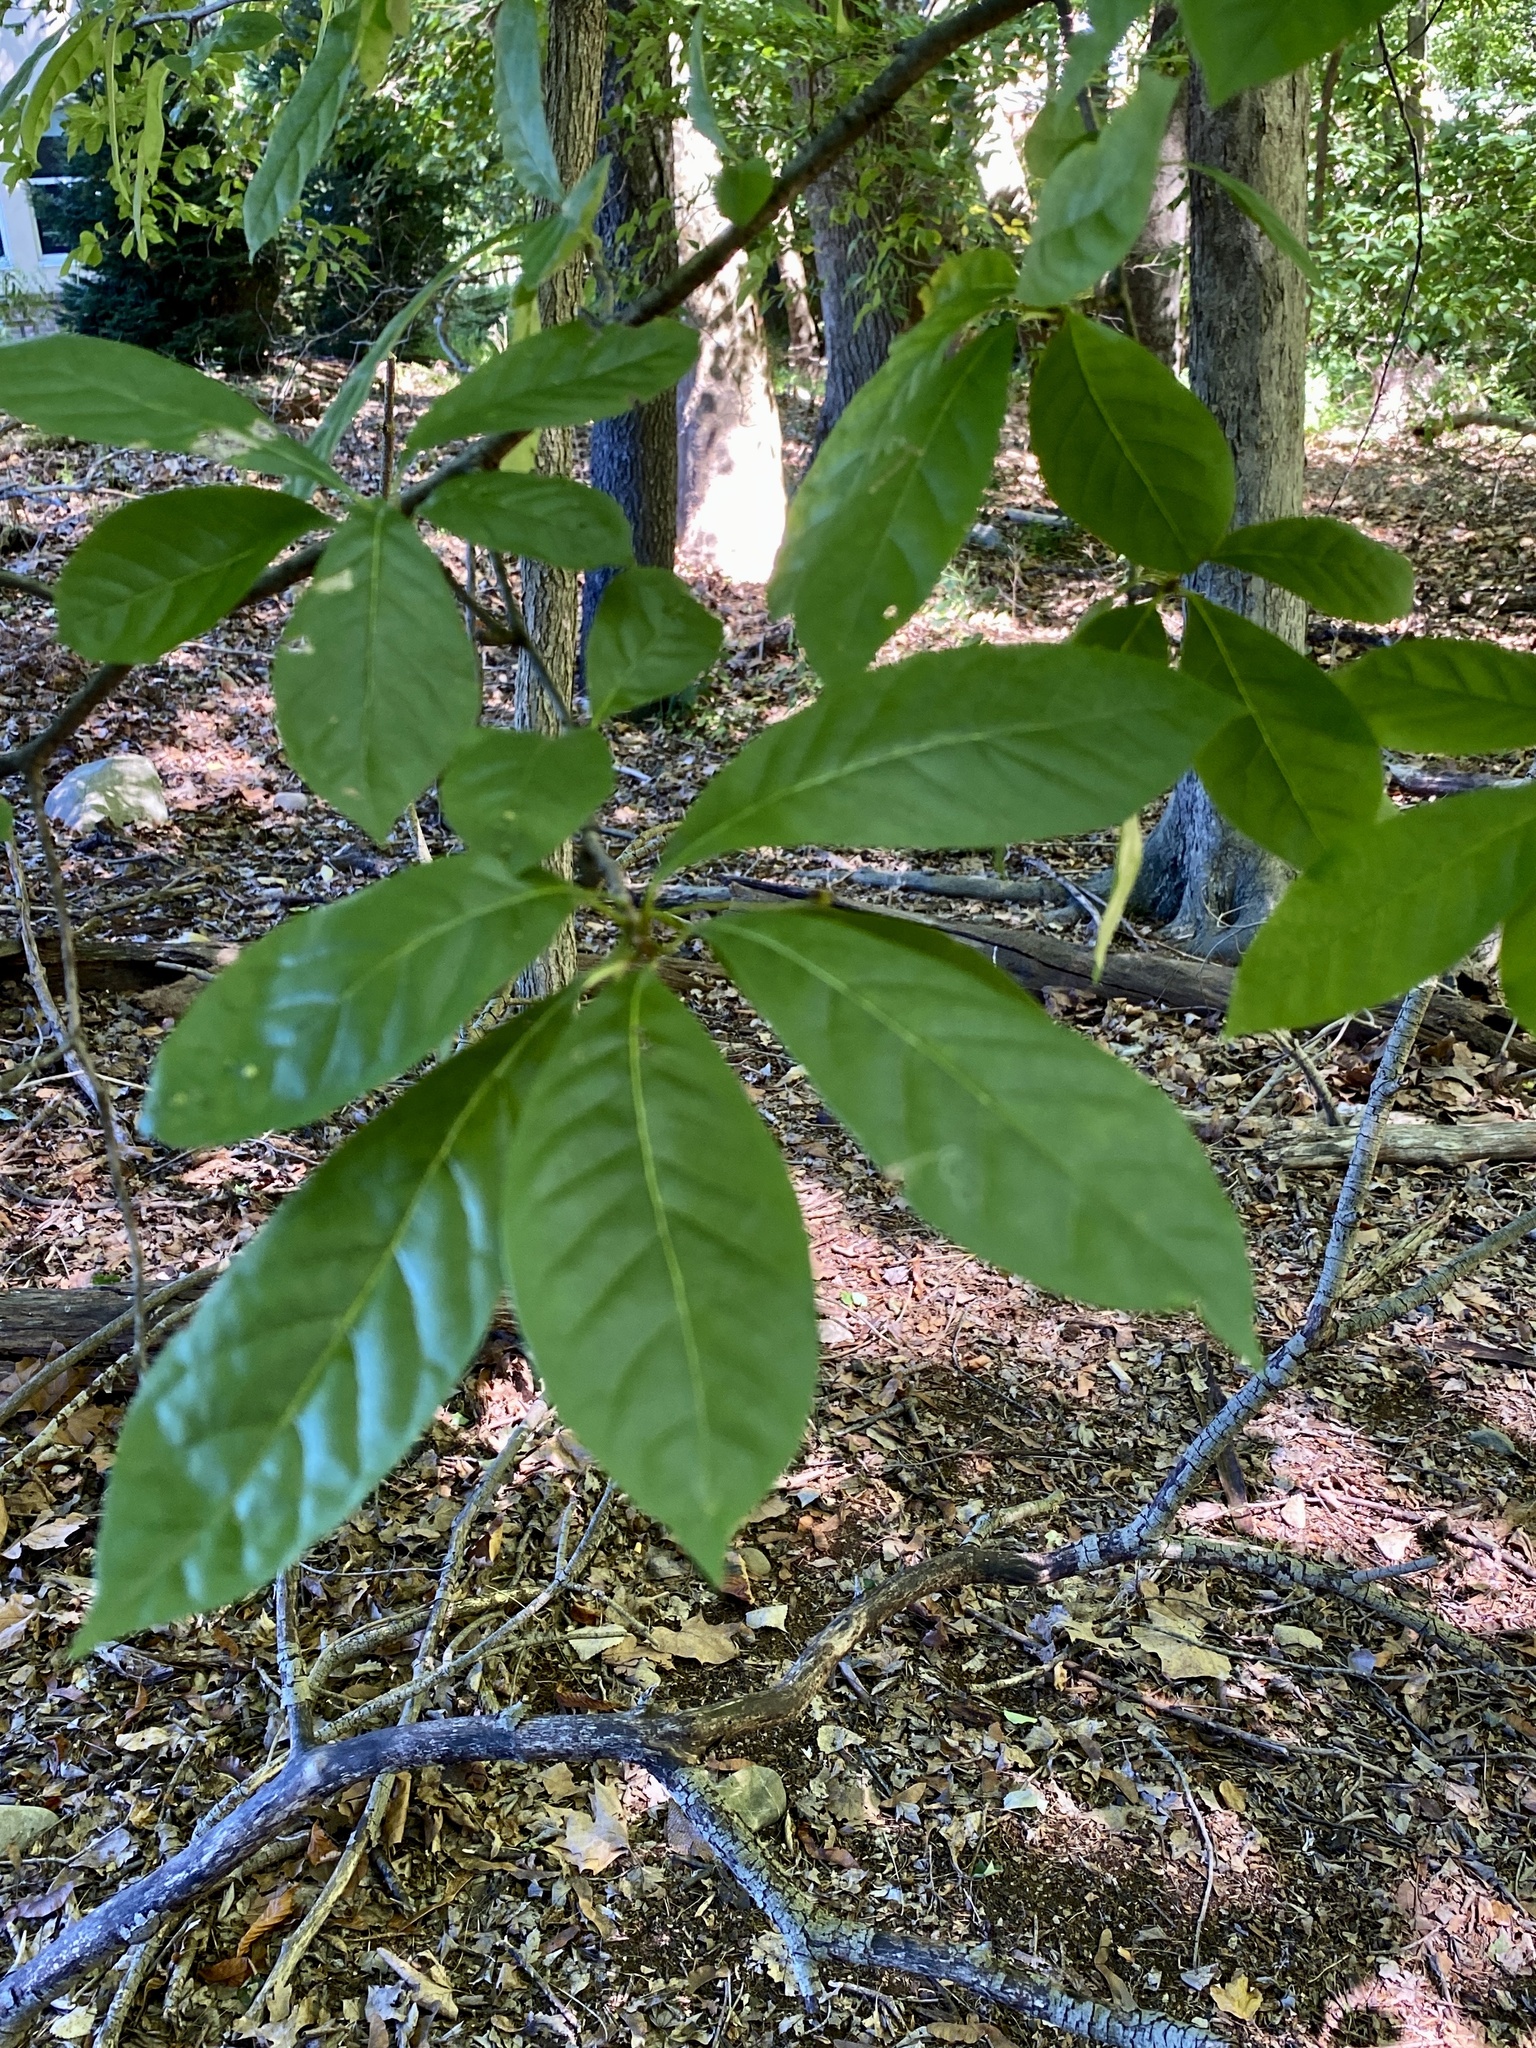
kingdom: Plantae
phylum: Tracheophyta
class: Magnoliopsida
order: Cornales
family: Nyssaceae
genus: Nyssa
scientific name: Nyssa sylvatica
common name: Black tupelo
